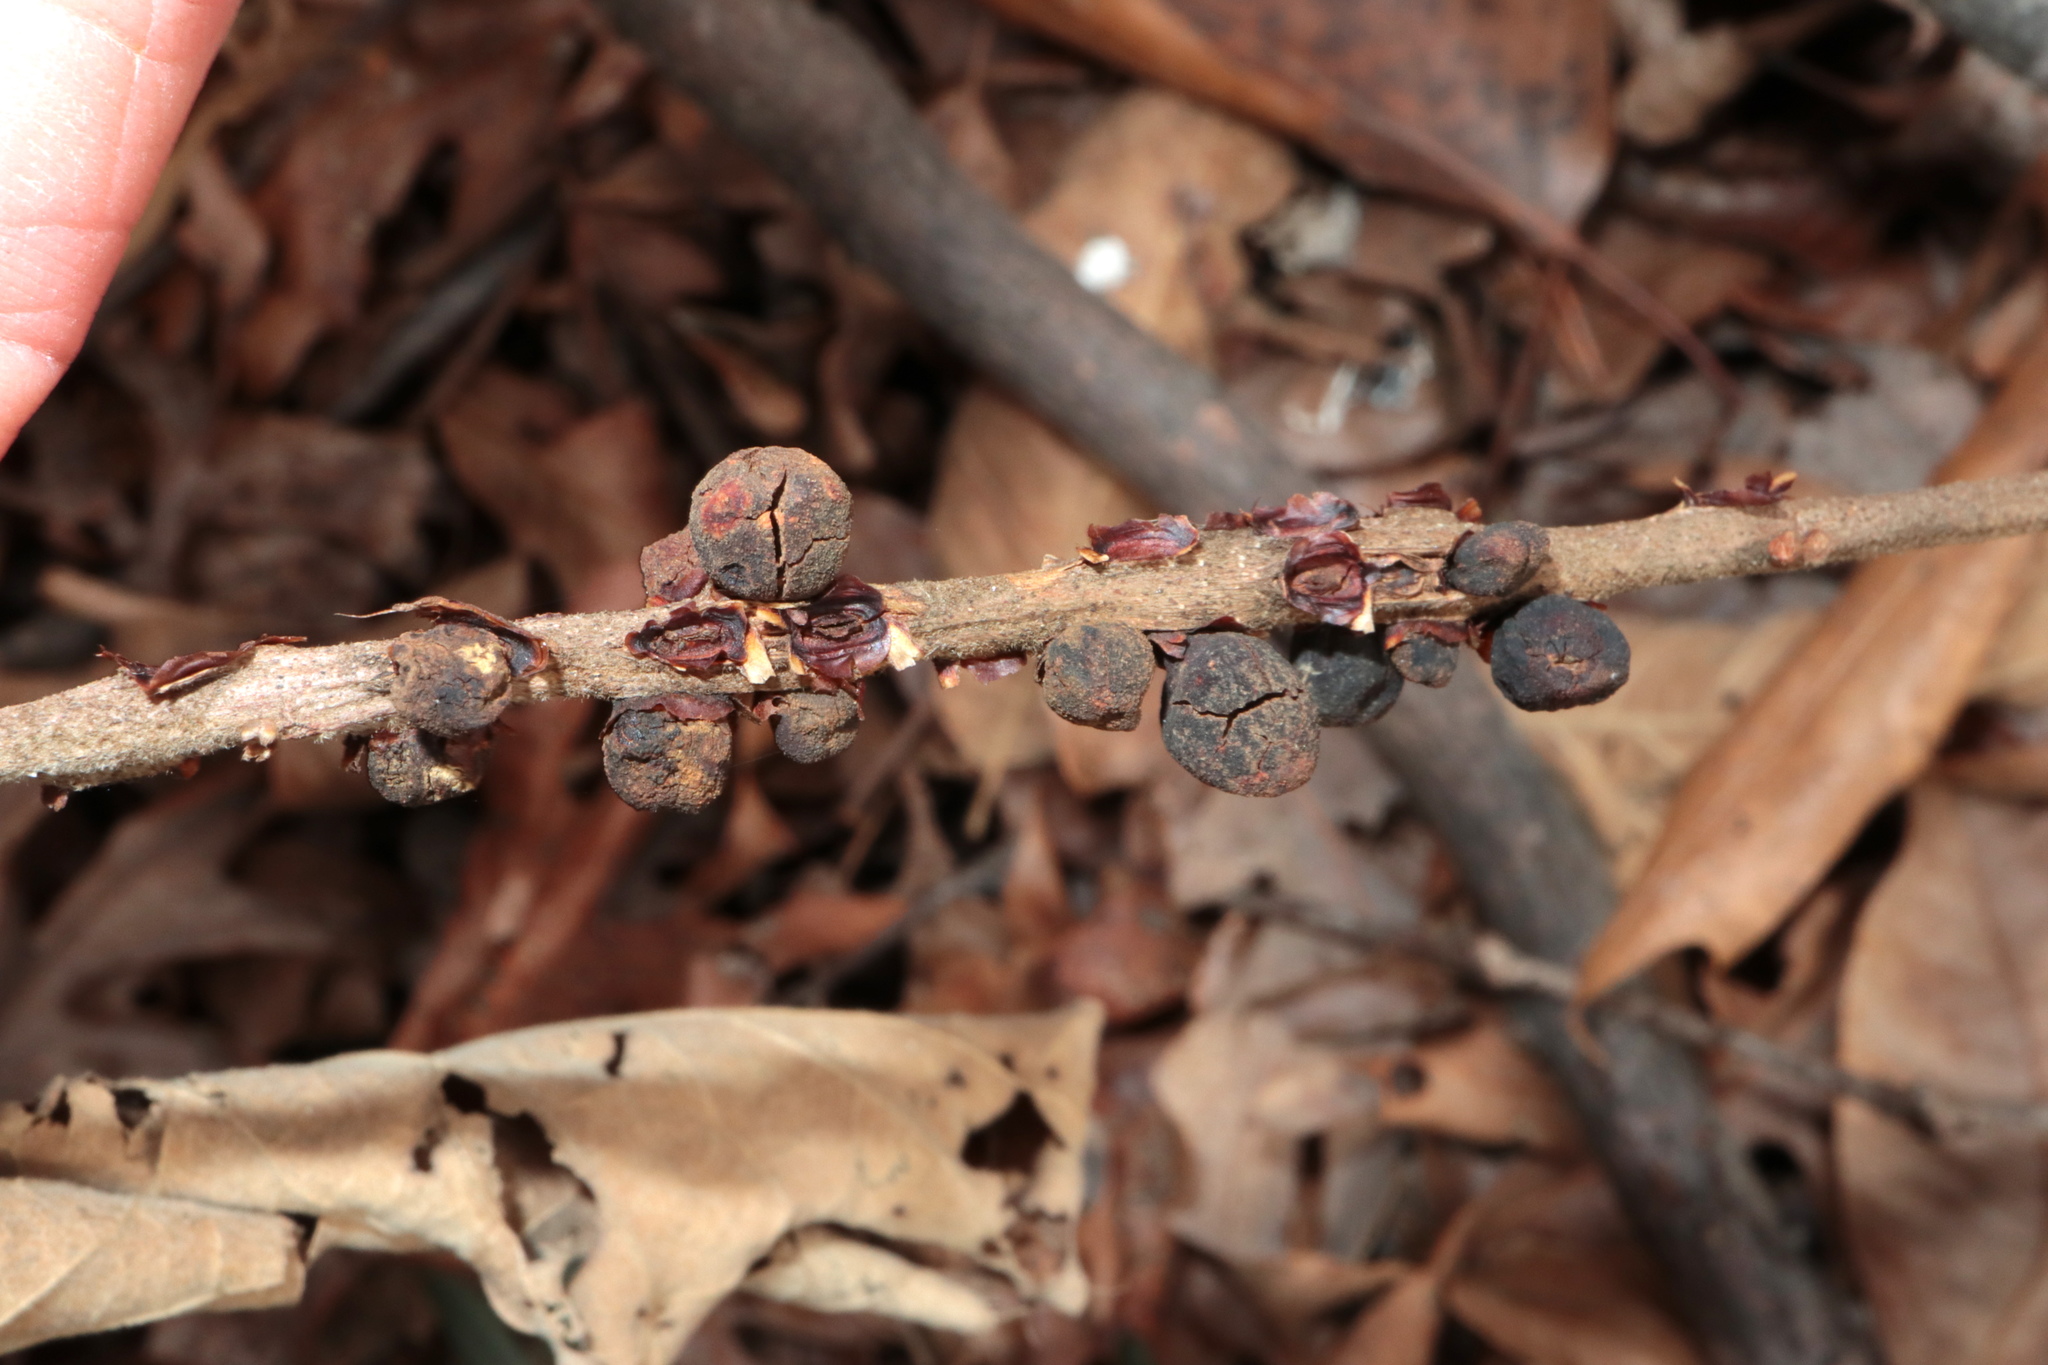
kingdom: Animalia
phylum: Arthropoda
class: Insecta
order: Hymenoptera
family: Cynipidae
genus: Kokkocynips
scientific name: Kokkocynips imbricariae
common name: Banded bullet gall wasp
